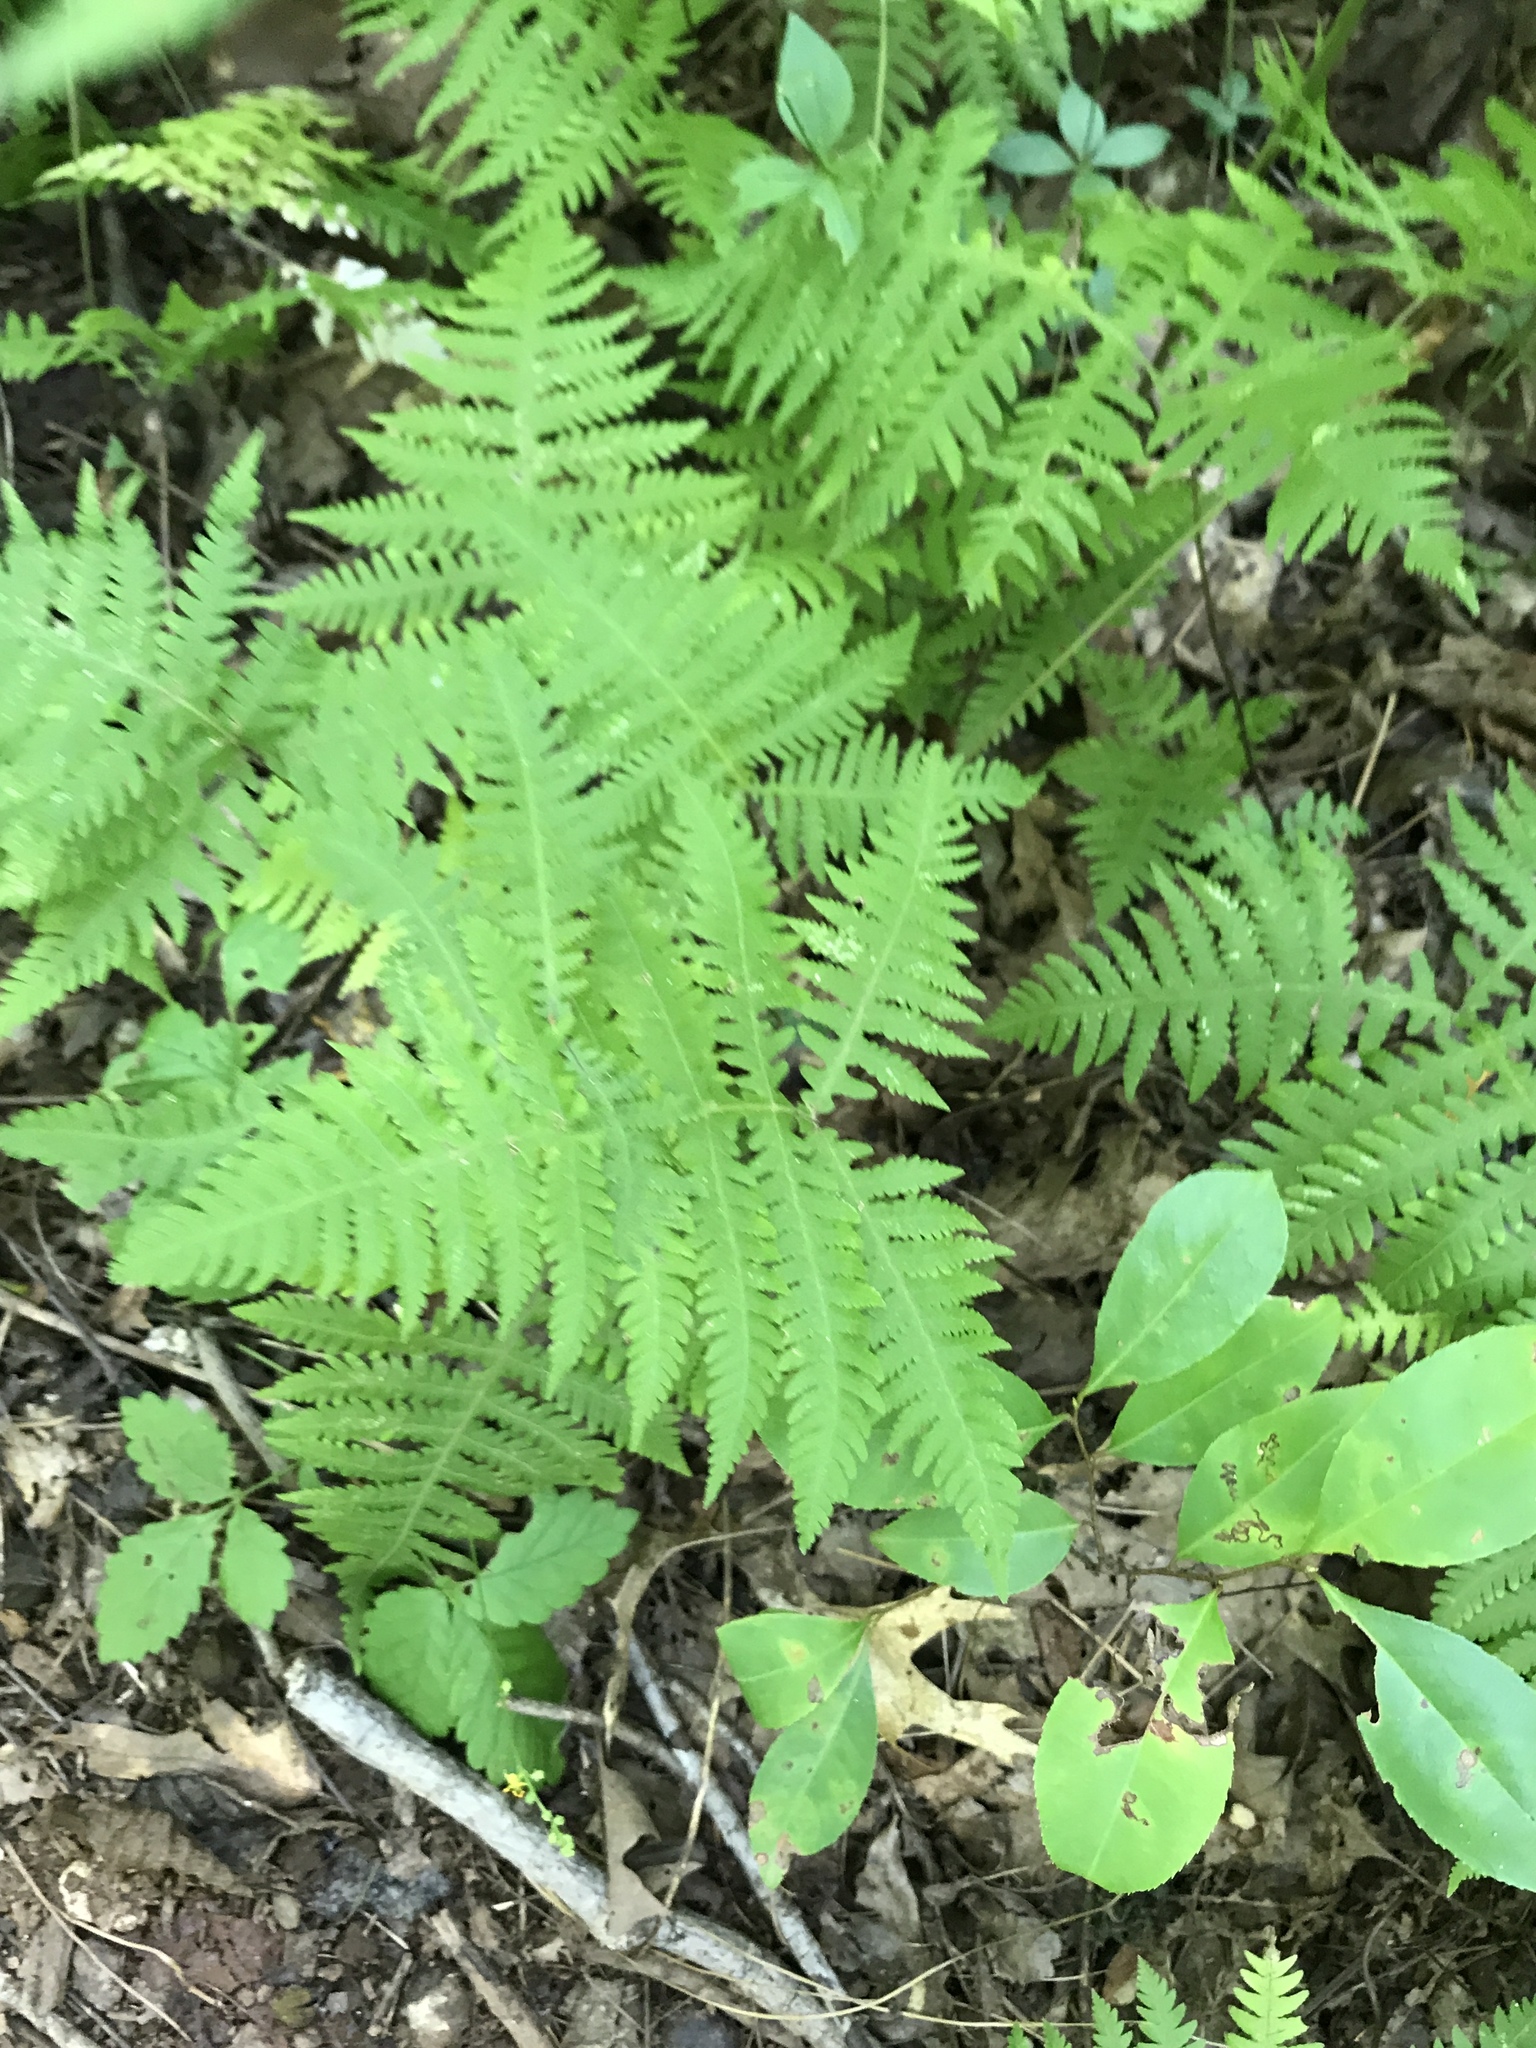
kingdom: Plantae
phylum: Tracheophyta
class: Polypodiopsida
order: Polypodiales
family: Thelypteridaceae
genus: Phegopteris
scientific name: Phegopteris hexagonoptera
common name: Broad beech fern
